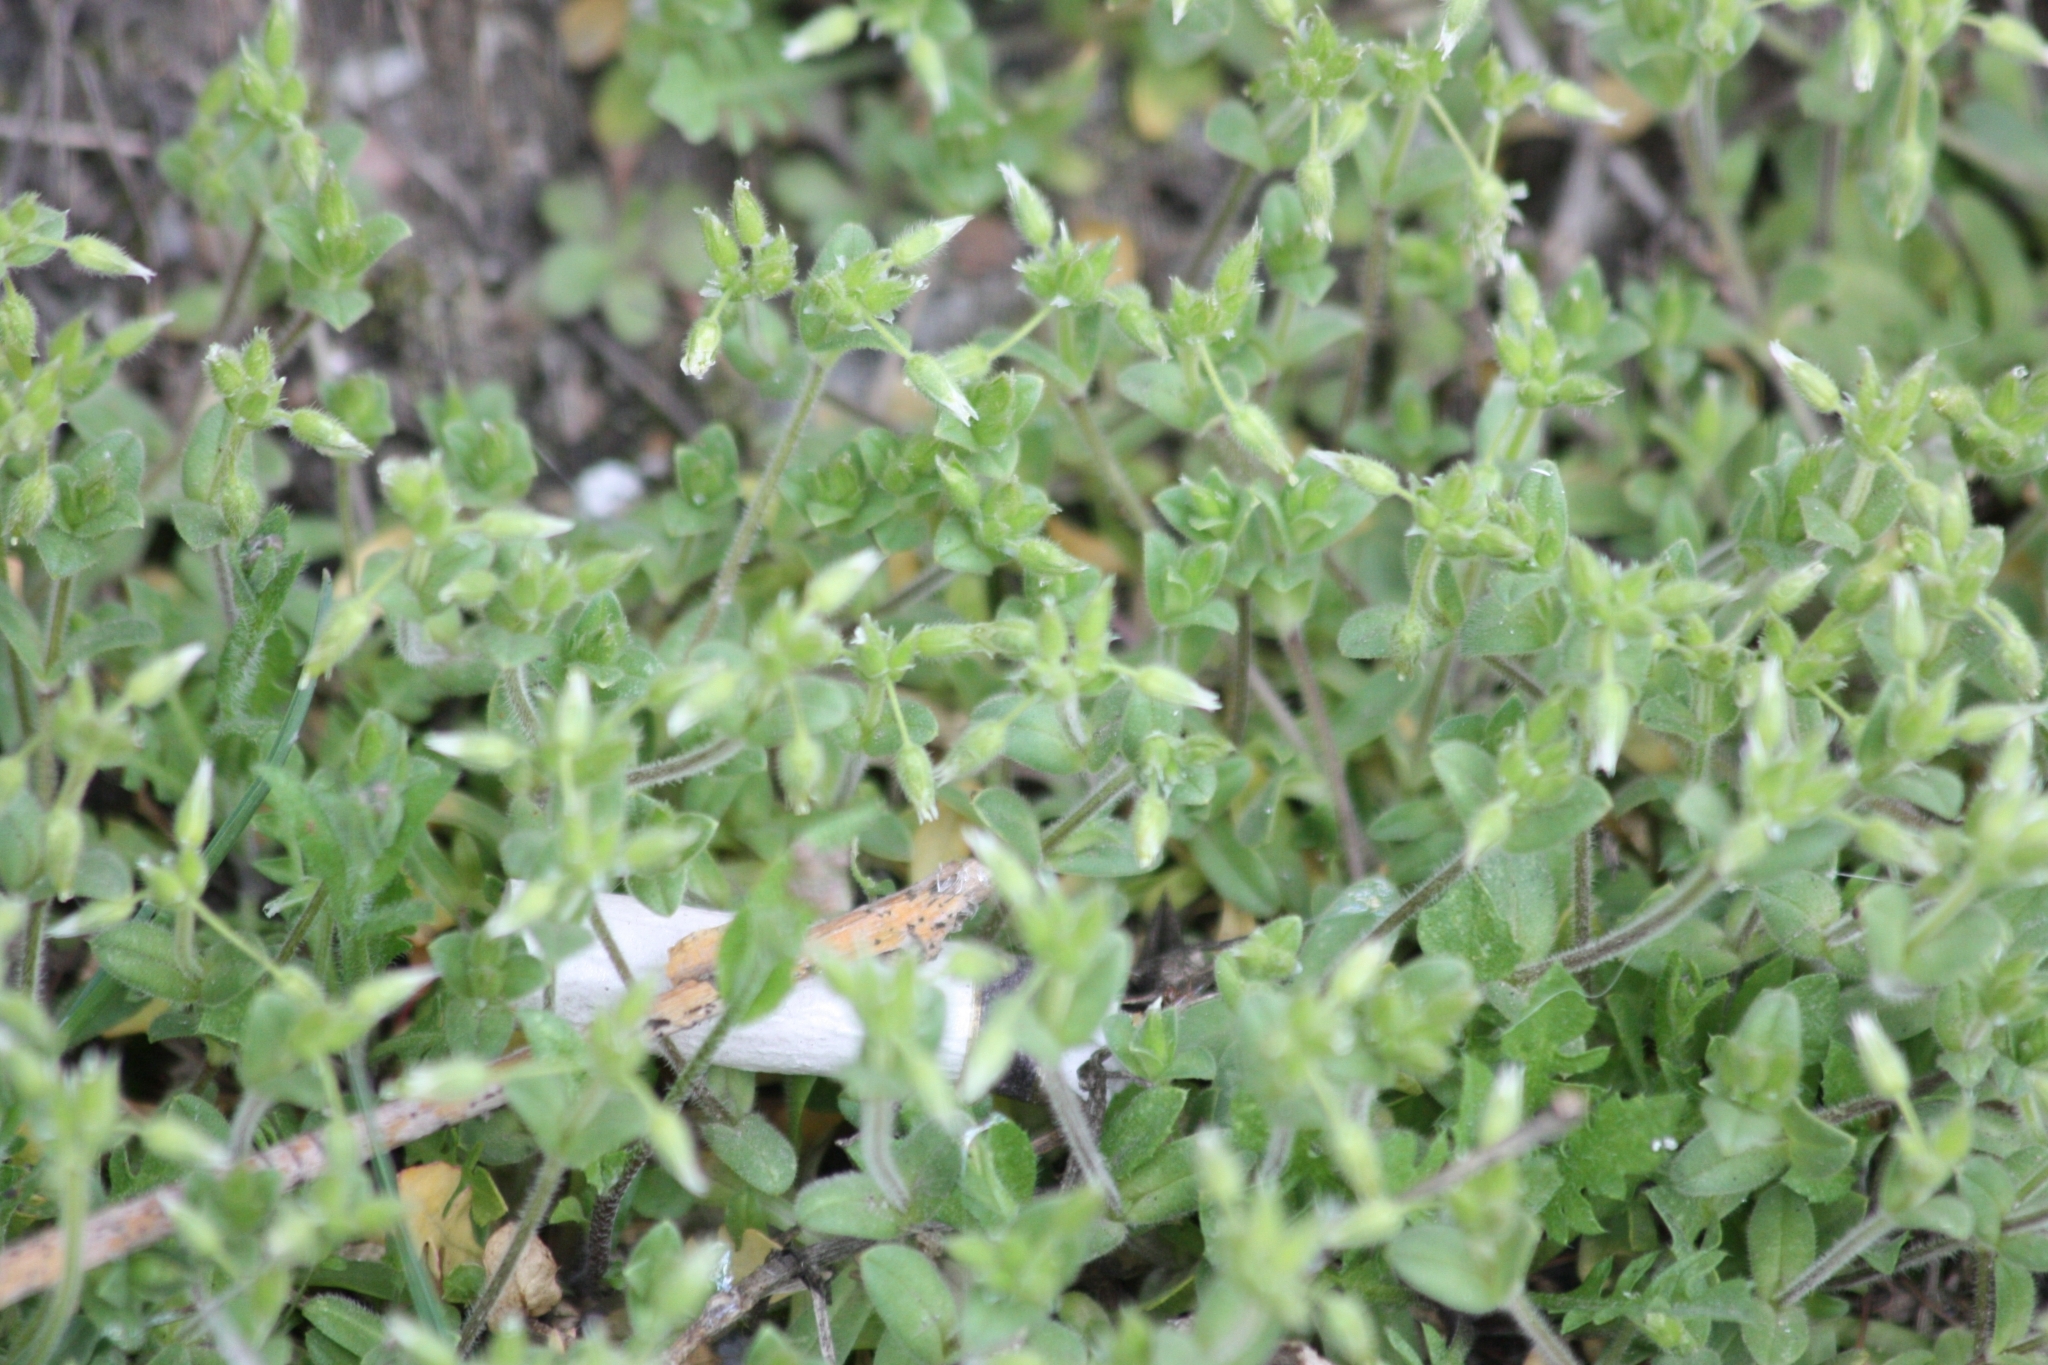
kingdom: Plantae
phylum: Tracheophyta
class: Magnoliopsida
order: Caryophyllales
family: Caryophyllaceae
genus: Cerastium
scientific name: Cerastium pumilum
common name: Dwarf mouse-ear
